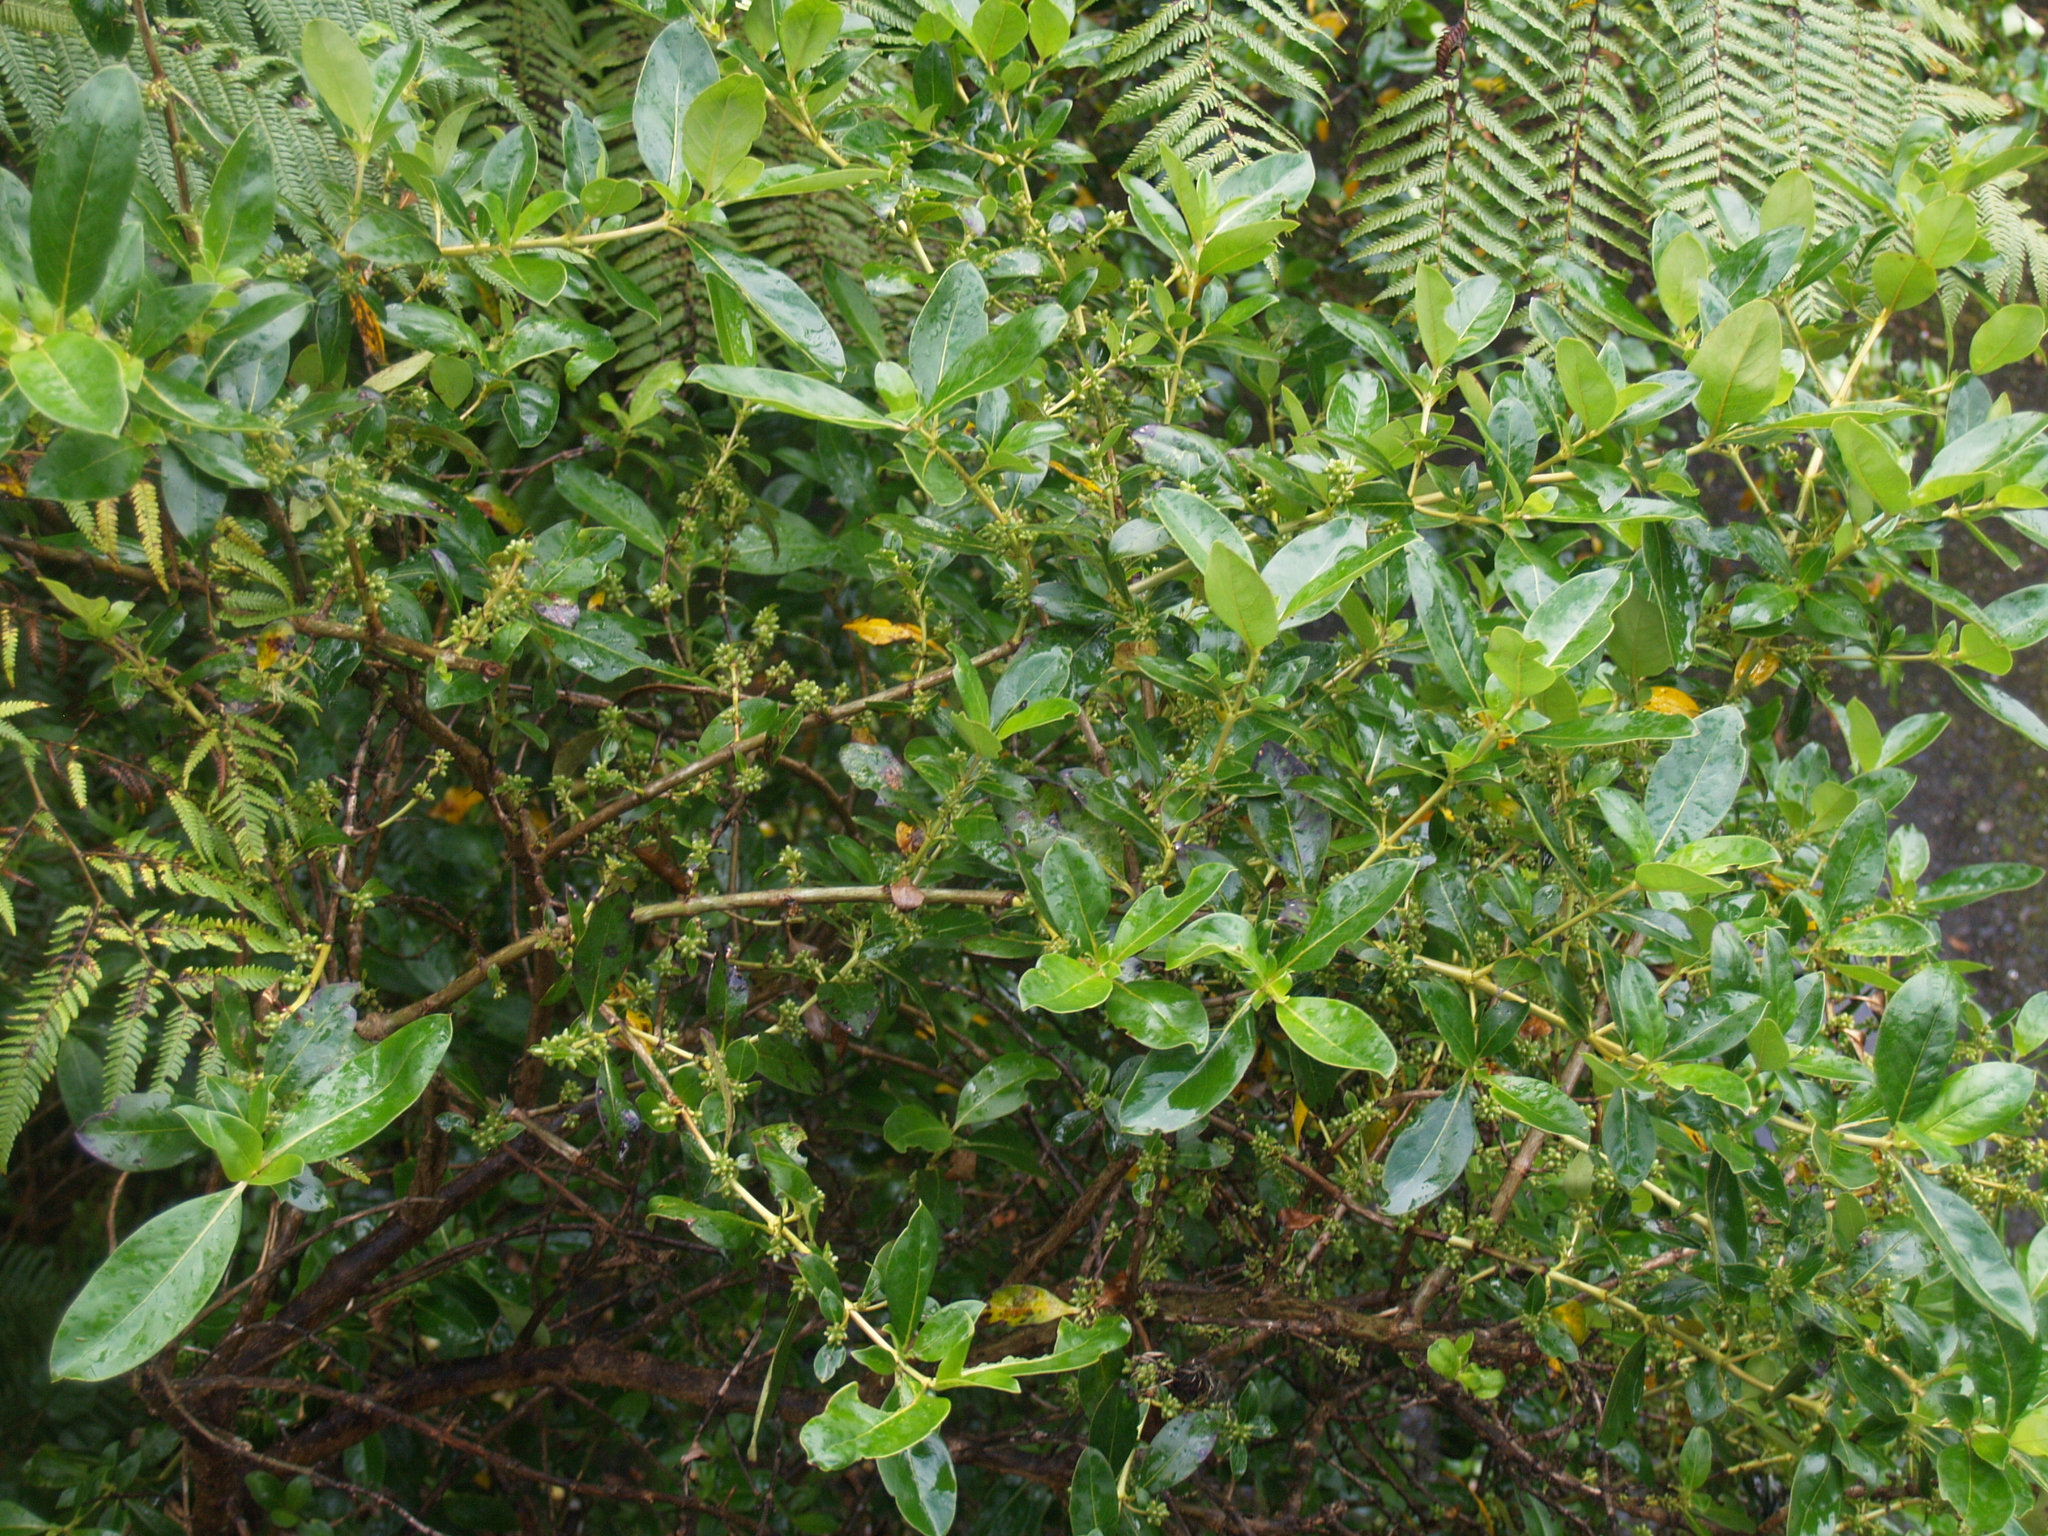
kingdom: Plantae
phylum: Tracheophyta
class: Magnoliopsida
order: Gentianales
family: Rubiaceae
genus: Coprosma
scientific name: Coprosma robusta
